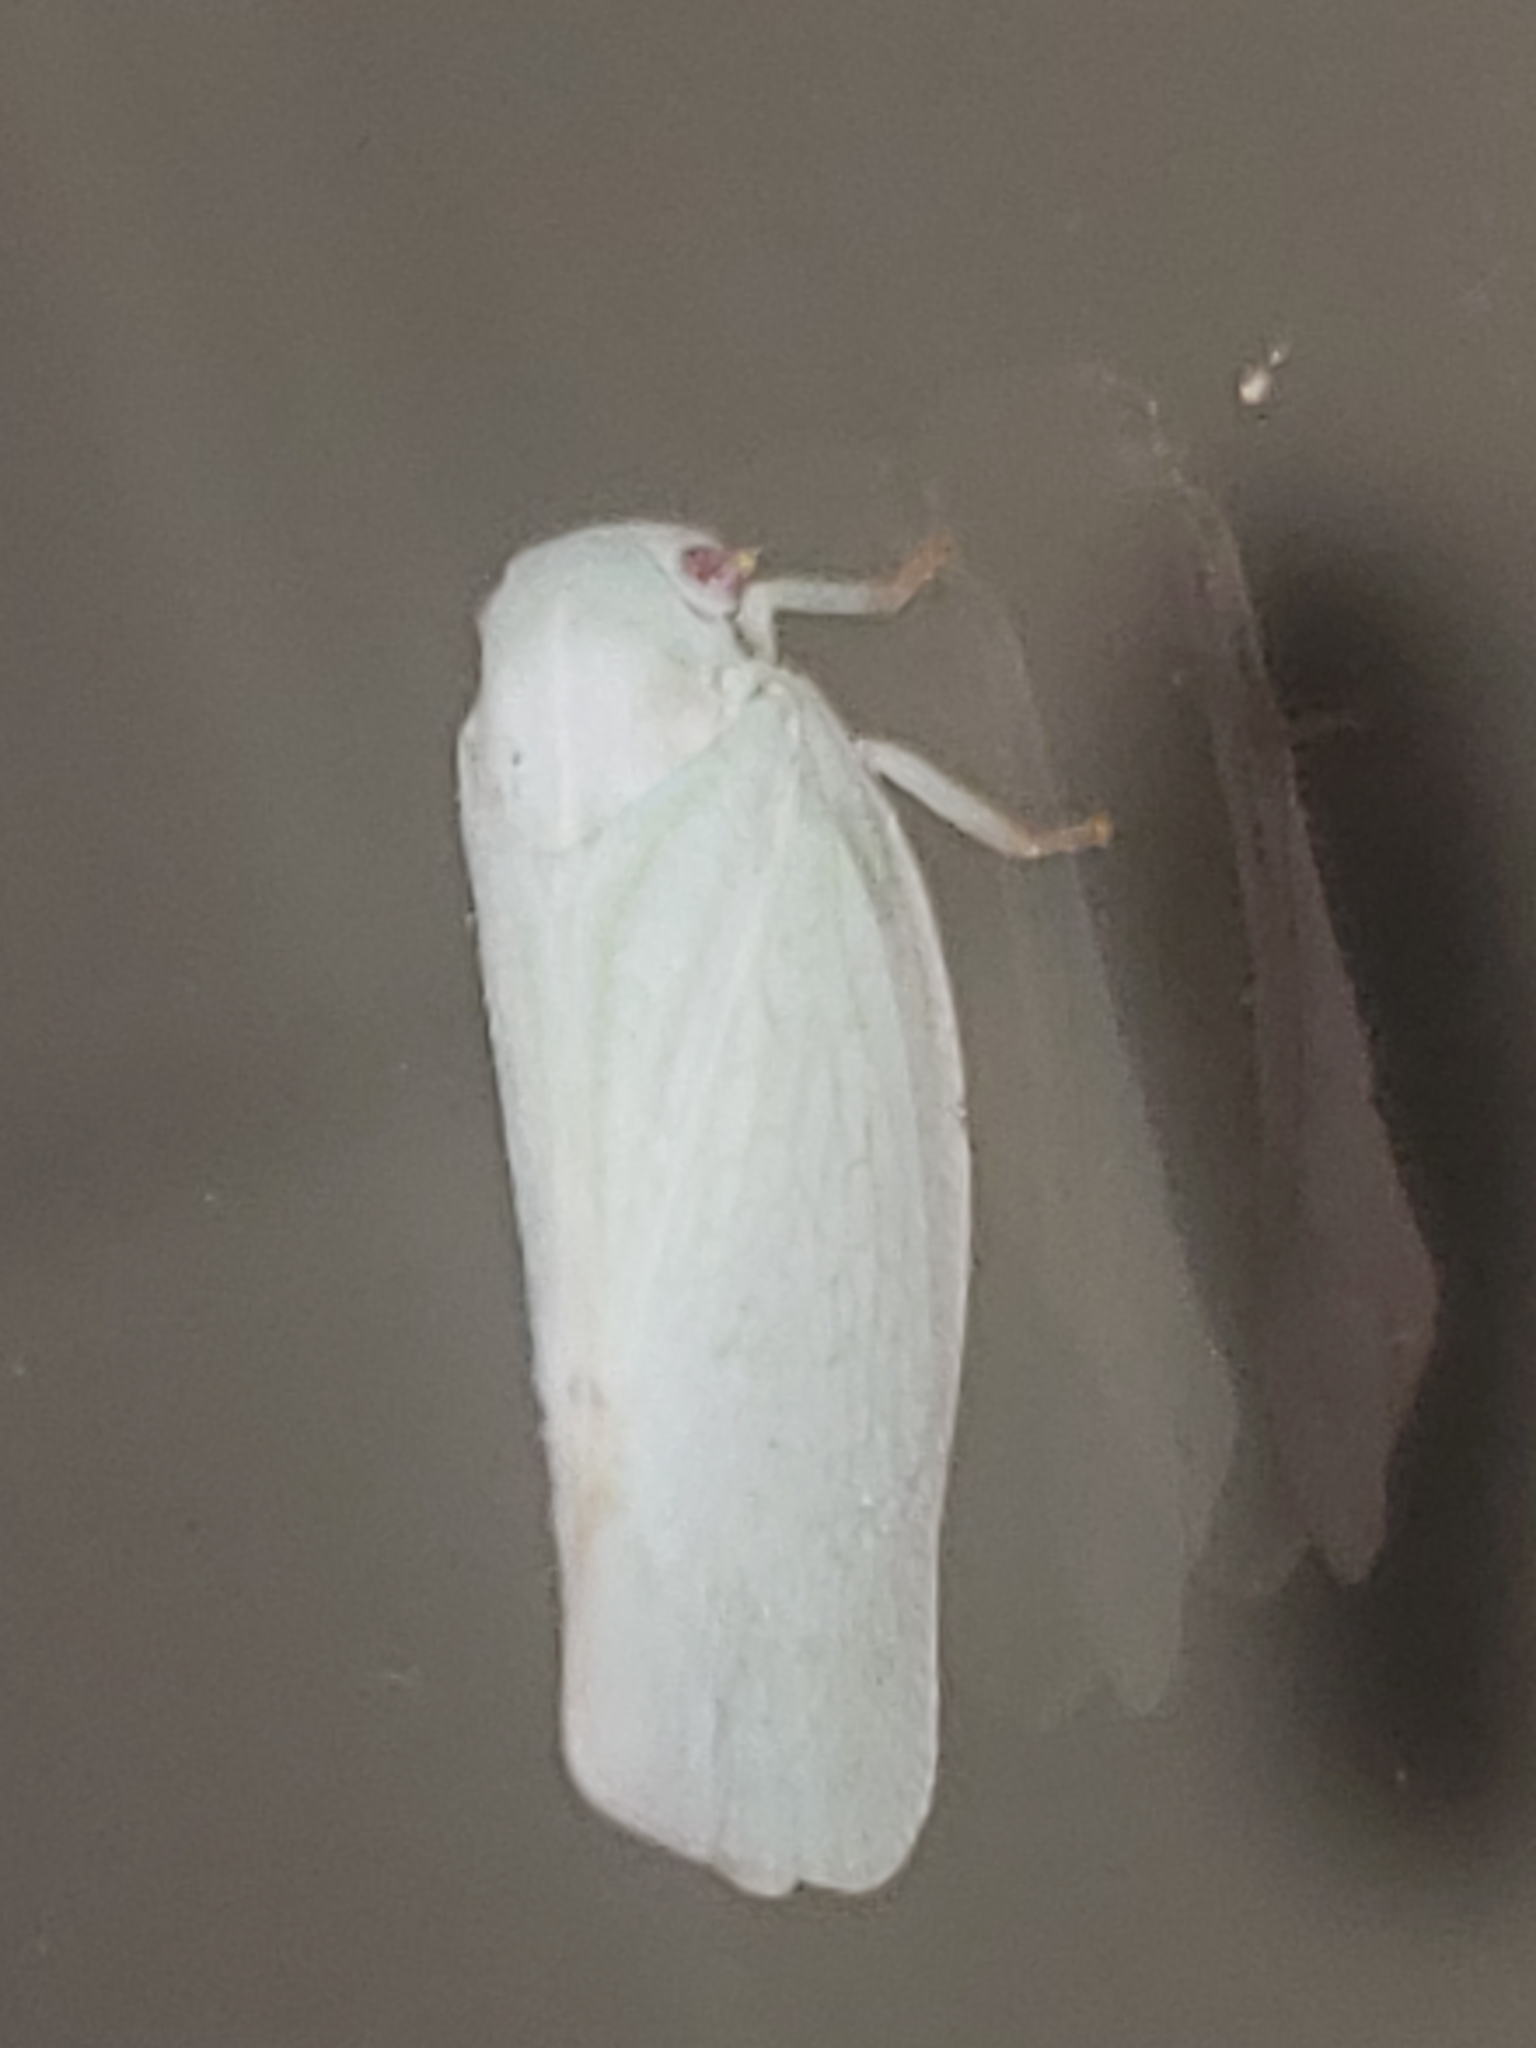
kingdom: Animalia
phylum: Arthropoda
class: Insecta
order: Hemiptera
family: Flatidae
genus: Flatormenis
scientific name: Flatormenis proxima
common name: Northern flatid planthopper
